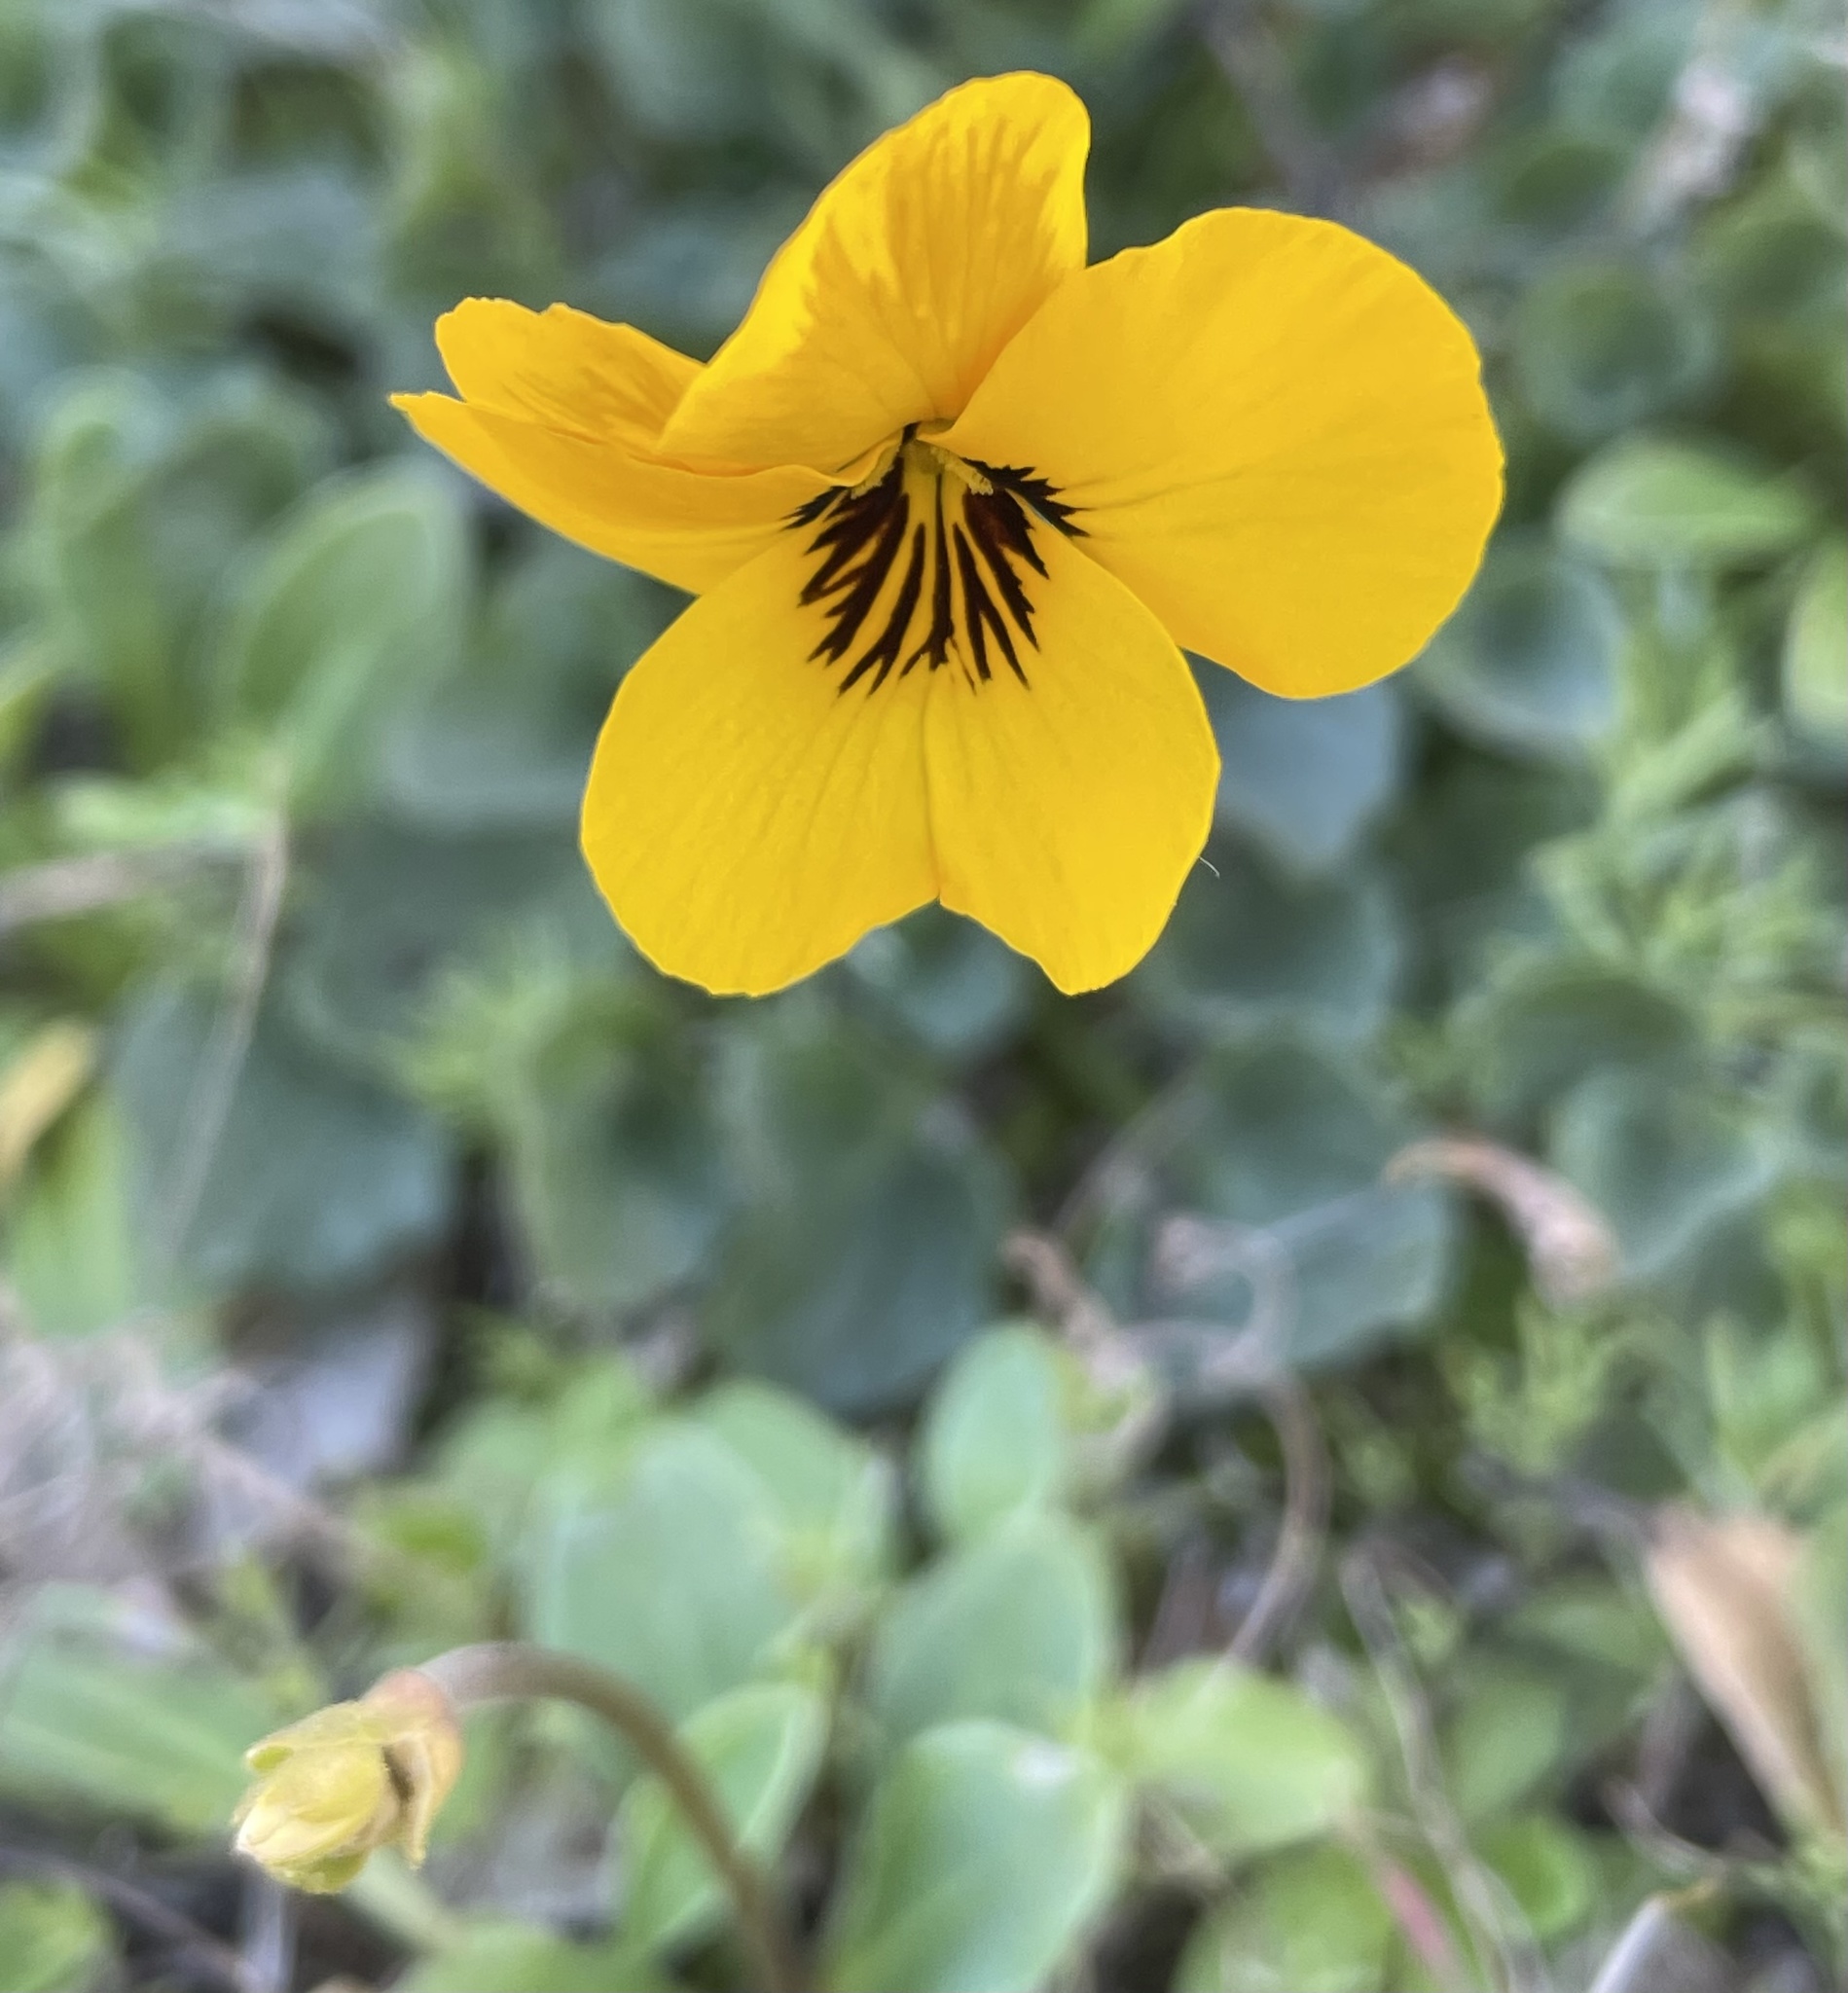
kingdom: Plantae
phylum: Tracheophyta
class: Magnoliopsida
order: Malpighiales
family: Violaceae
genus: Viola
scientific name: Viola pedunculata
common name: California golden violet
